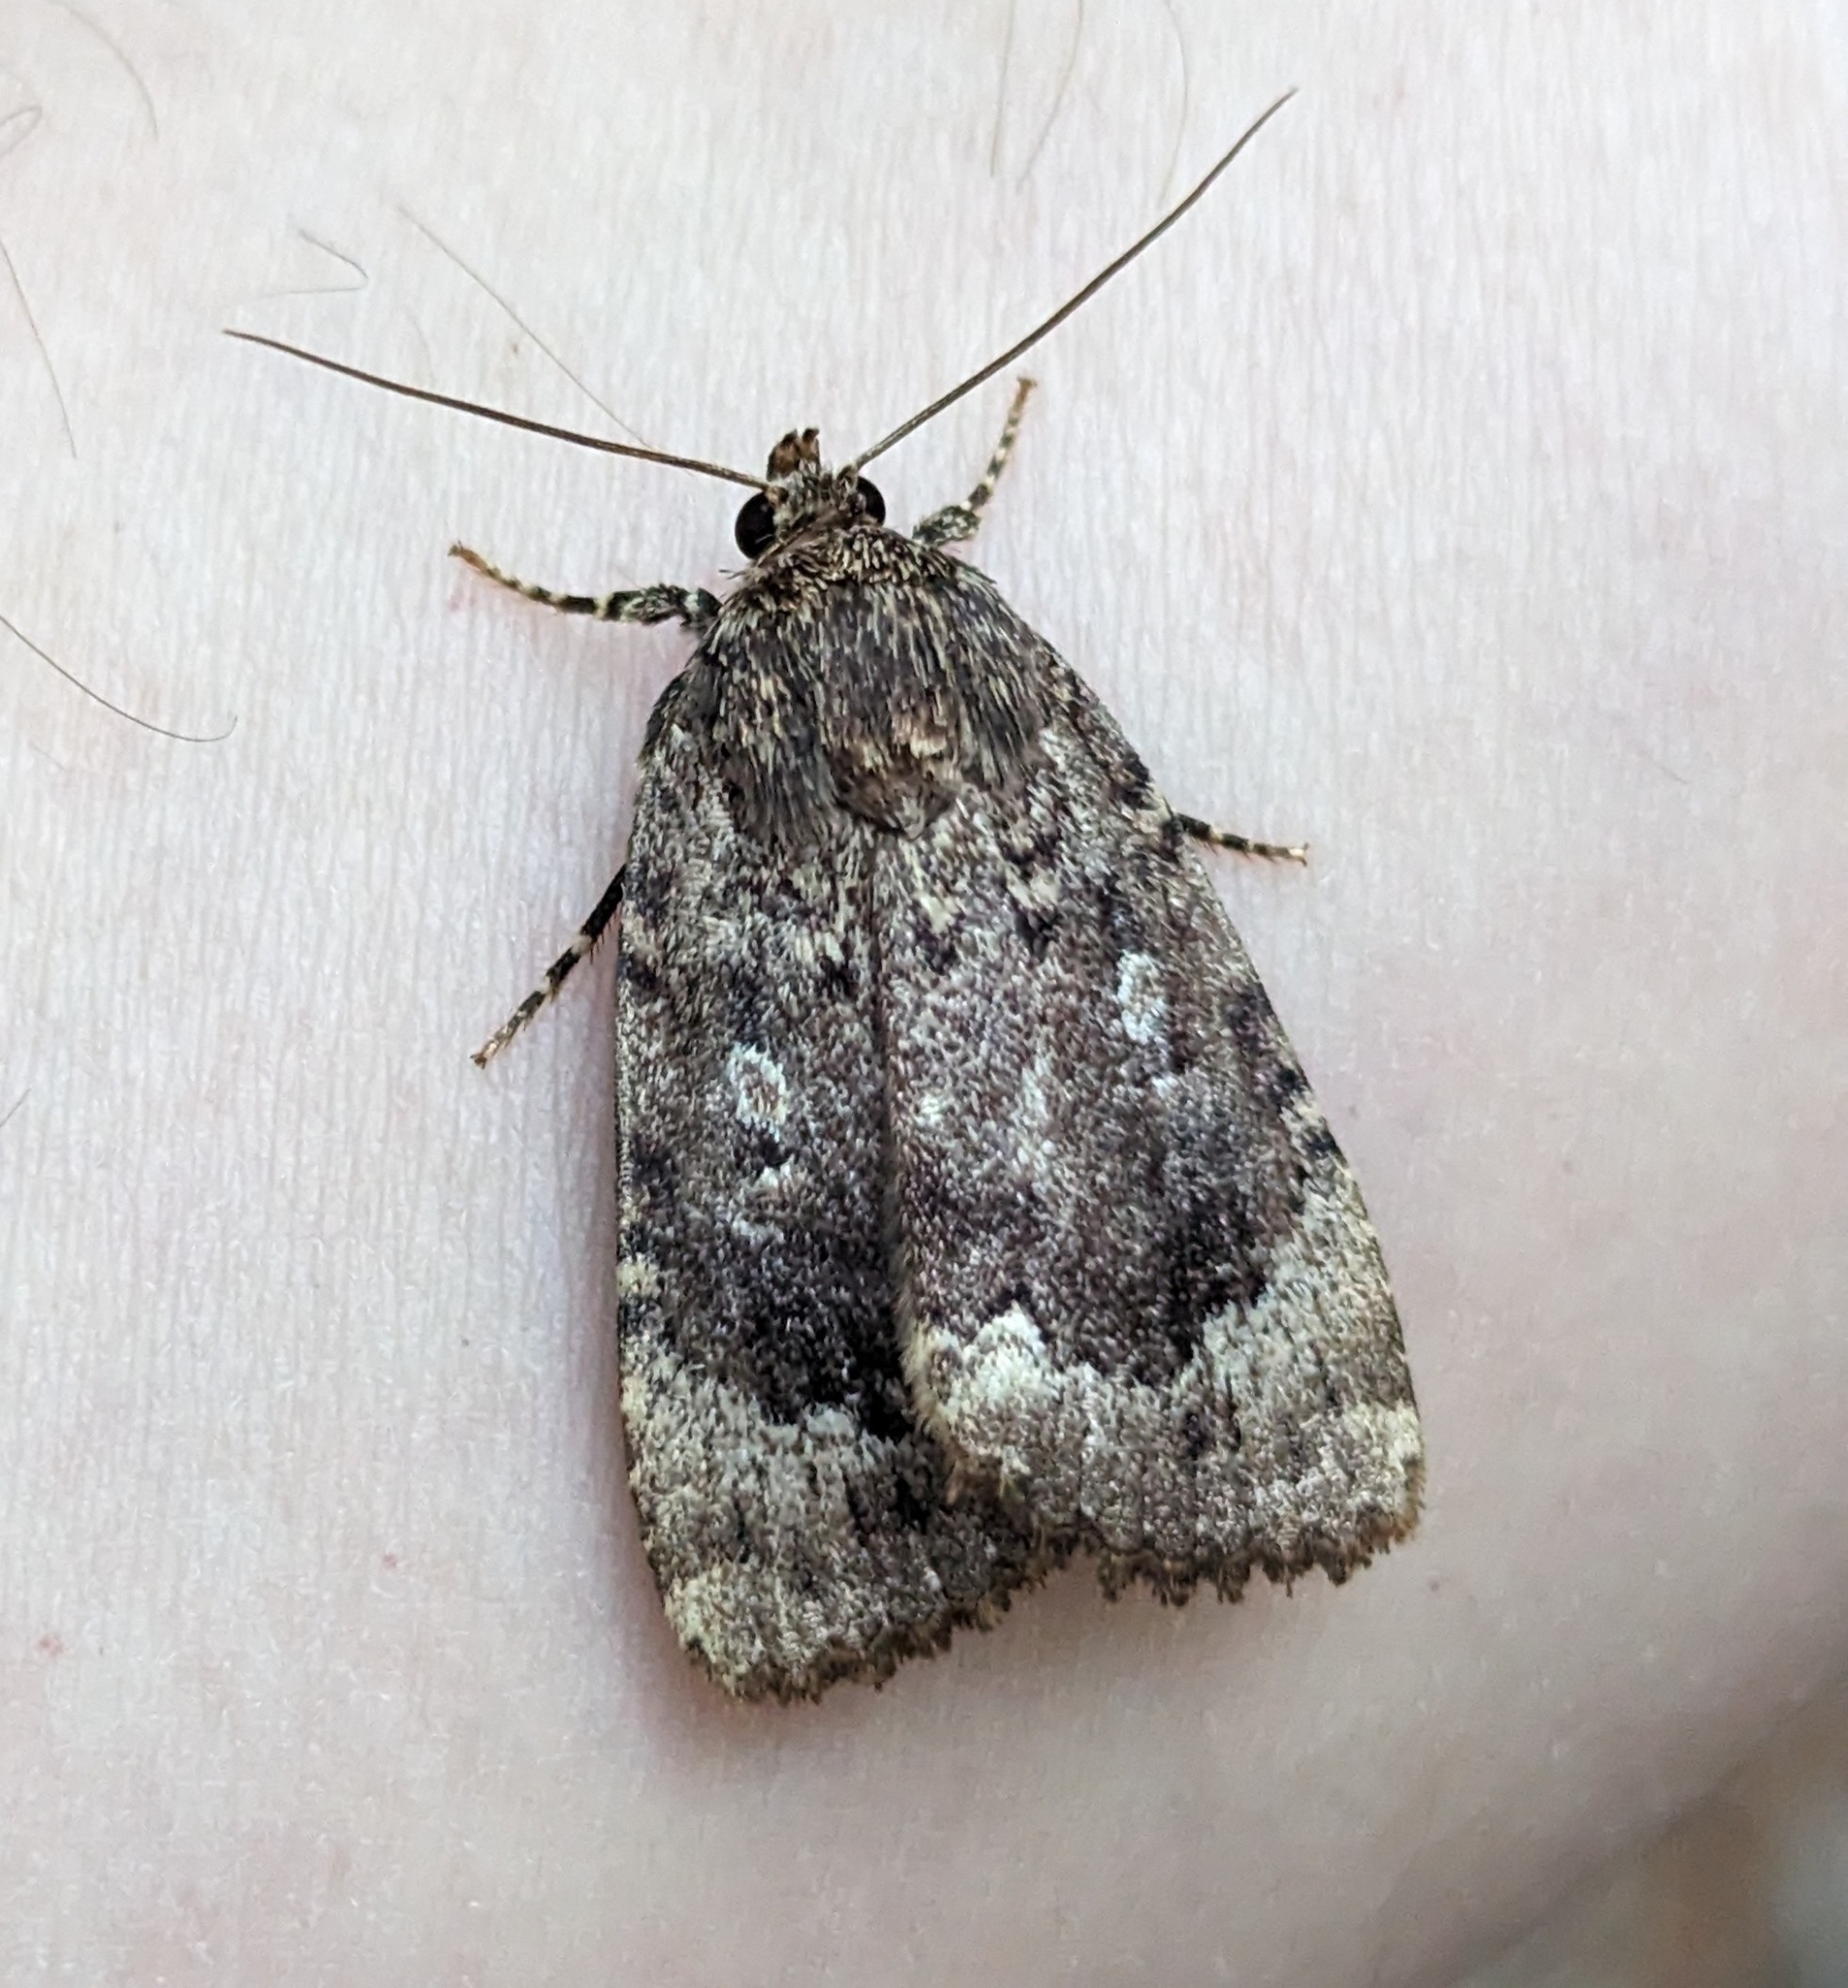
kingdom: Animalia
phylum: Arthropoda
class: Insecta
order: Lepidoptera
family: Noctuidae
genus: Amphipyra
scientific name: Amphipyra pyramidoides
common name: American copper underwing
